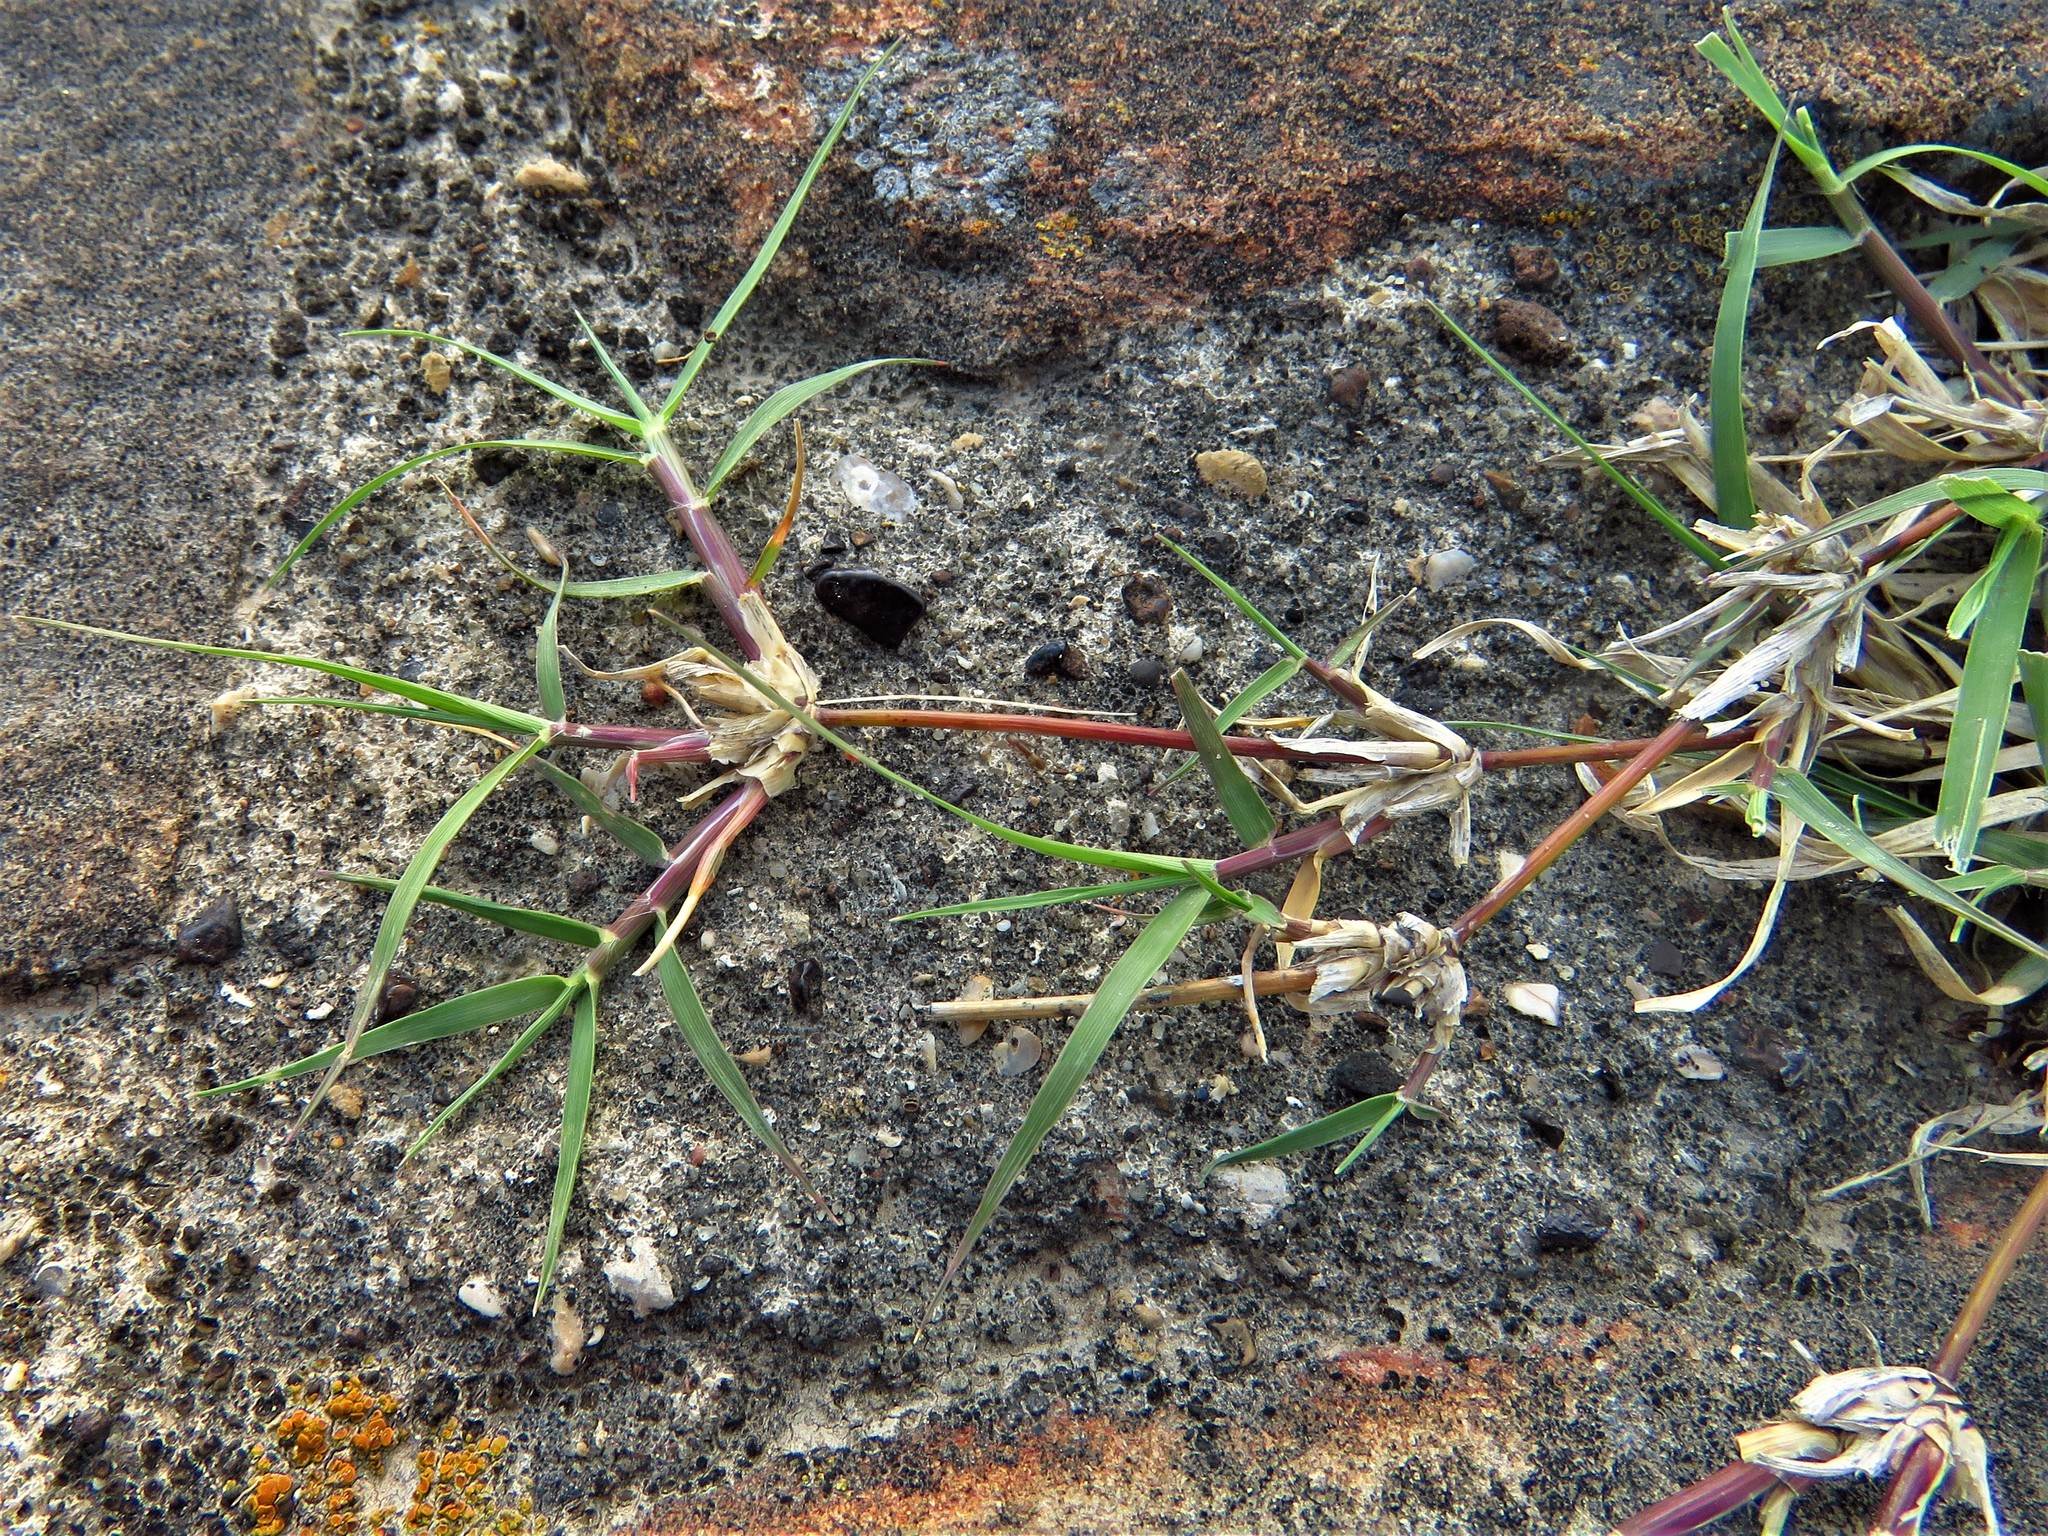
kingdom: Plantae
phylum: Tracheophyta
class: Liliopsida
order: Poales
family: Poaceae
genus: Cynodon
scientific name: Cynodon dactylon
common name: Bermuda grass
